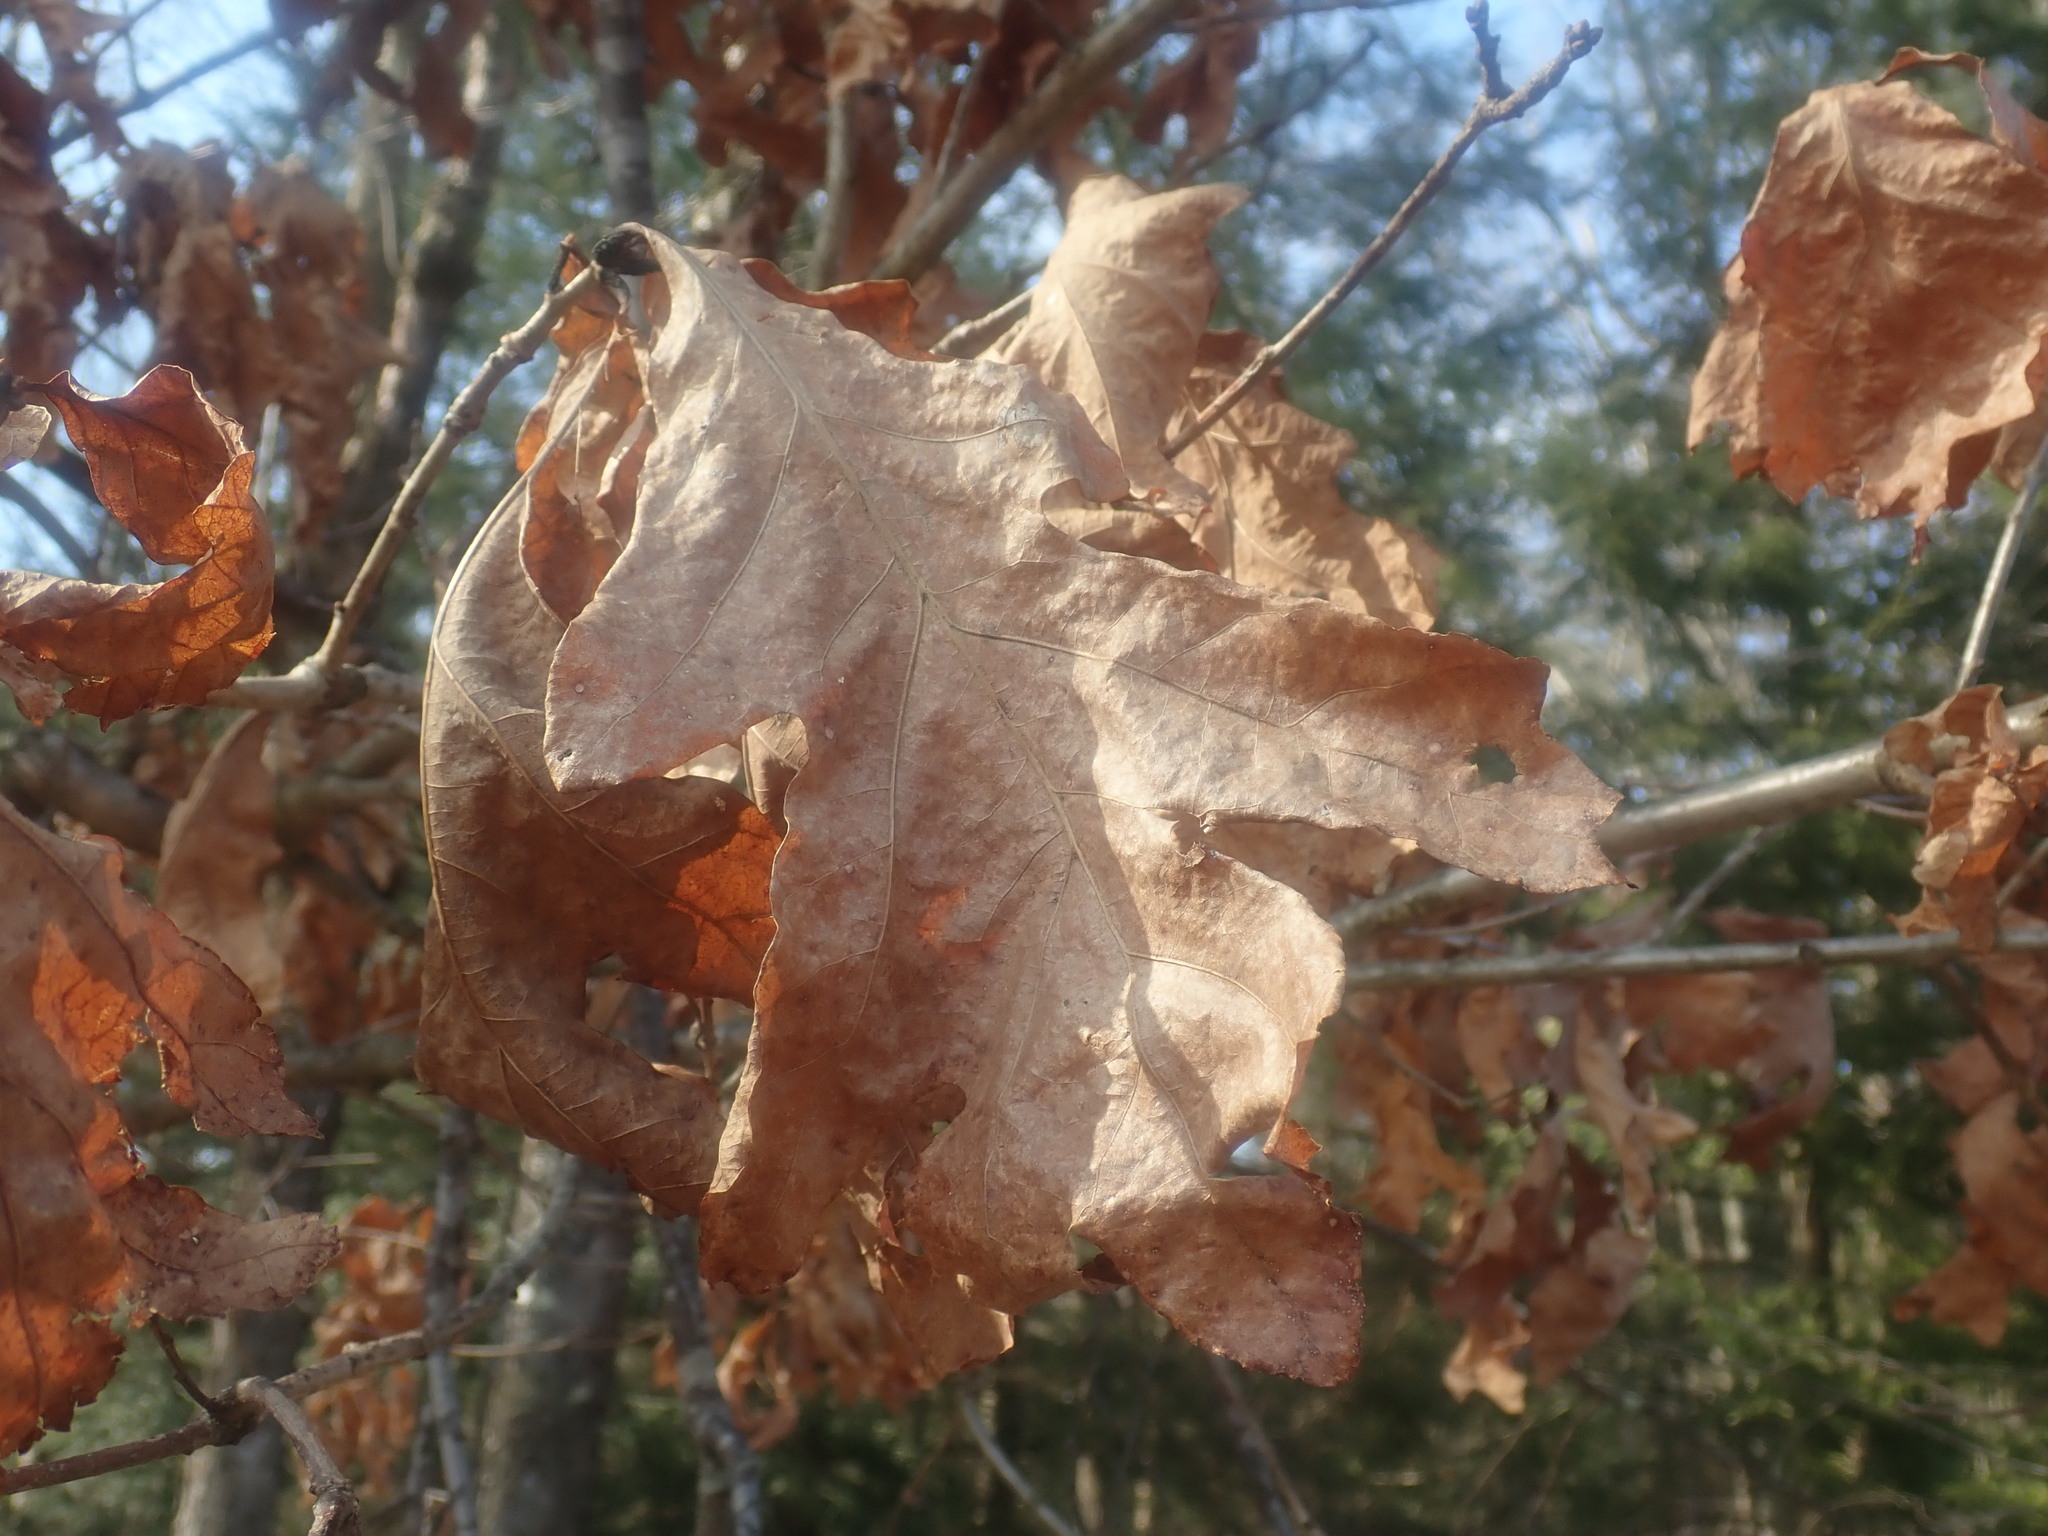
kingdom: Plantae
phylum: Tracheophyta
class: Magnoliopsida
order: Fagales
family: Fagaceae
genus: Quercus
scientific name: Quercus alba
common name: White oak
